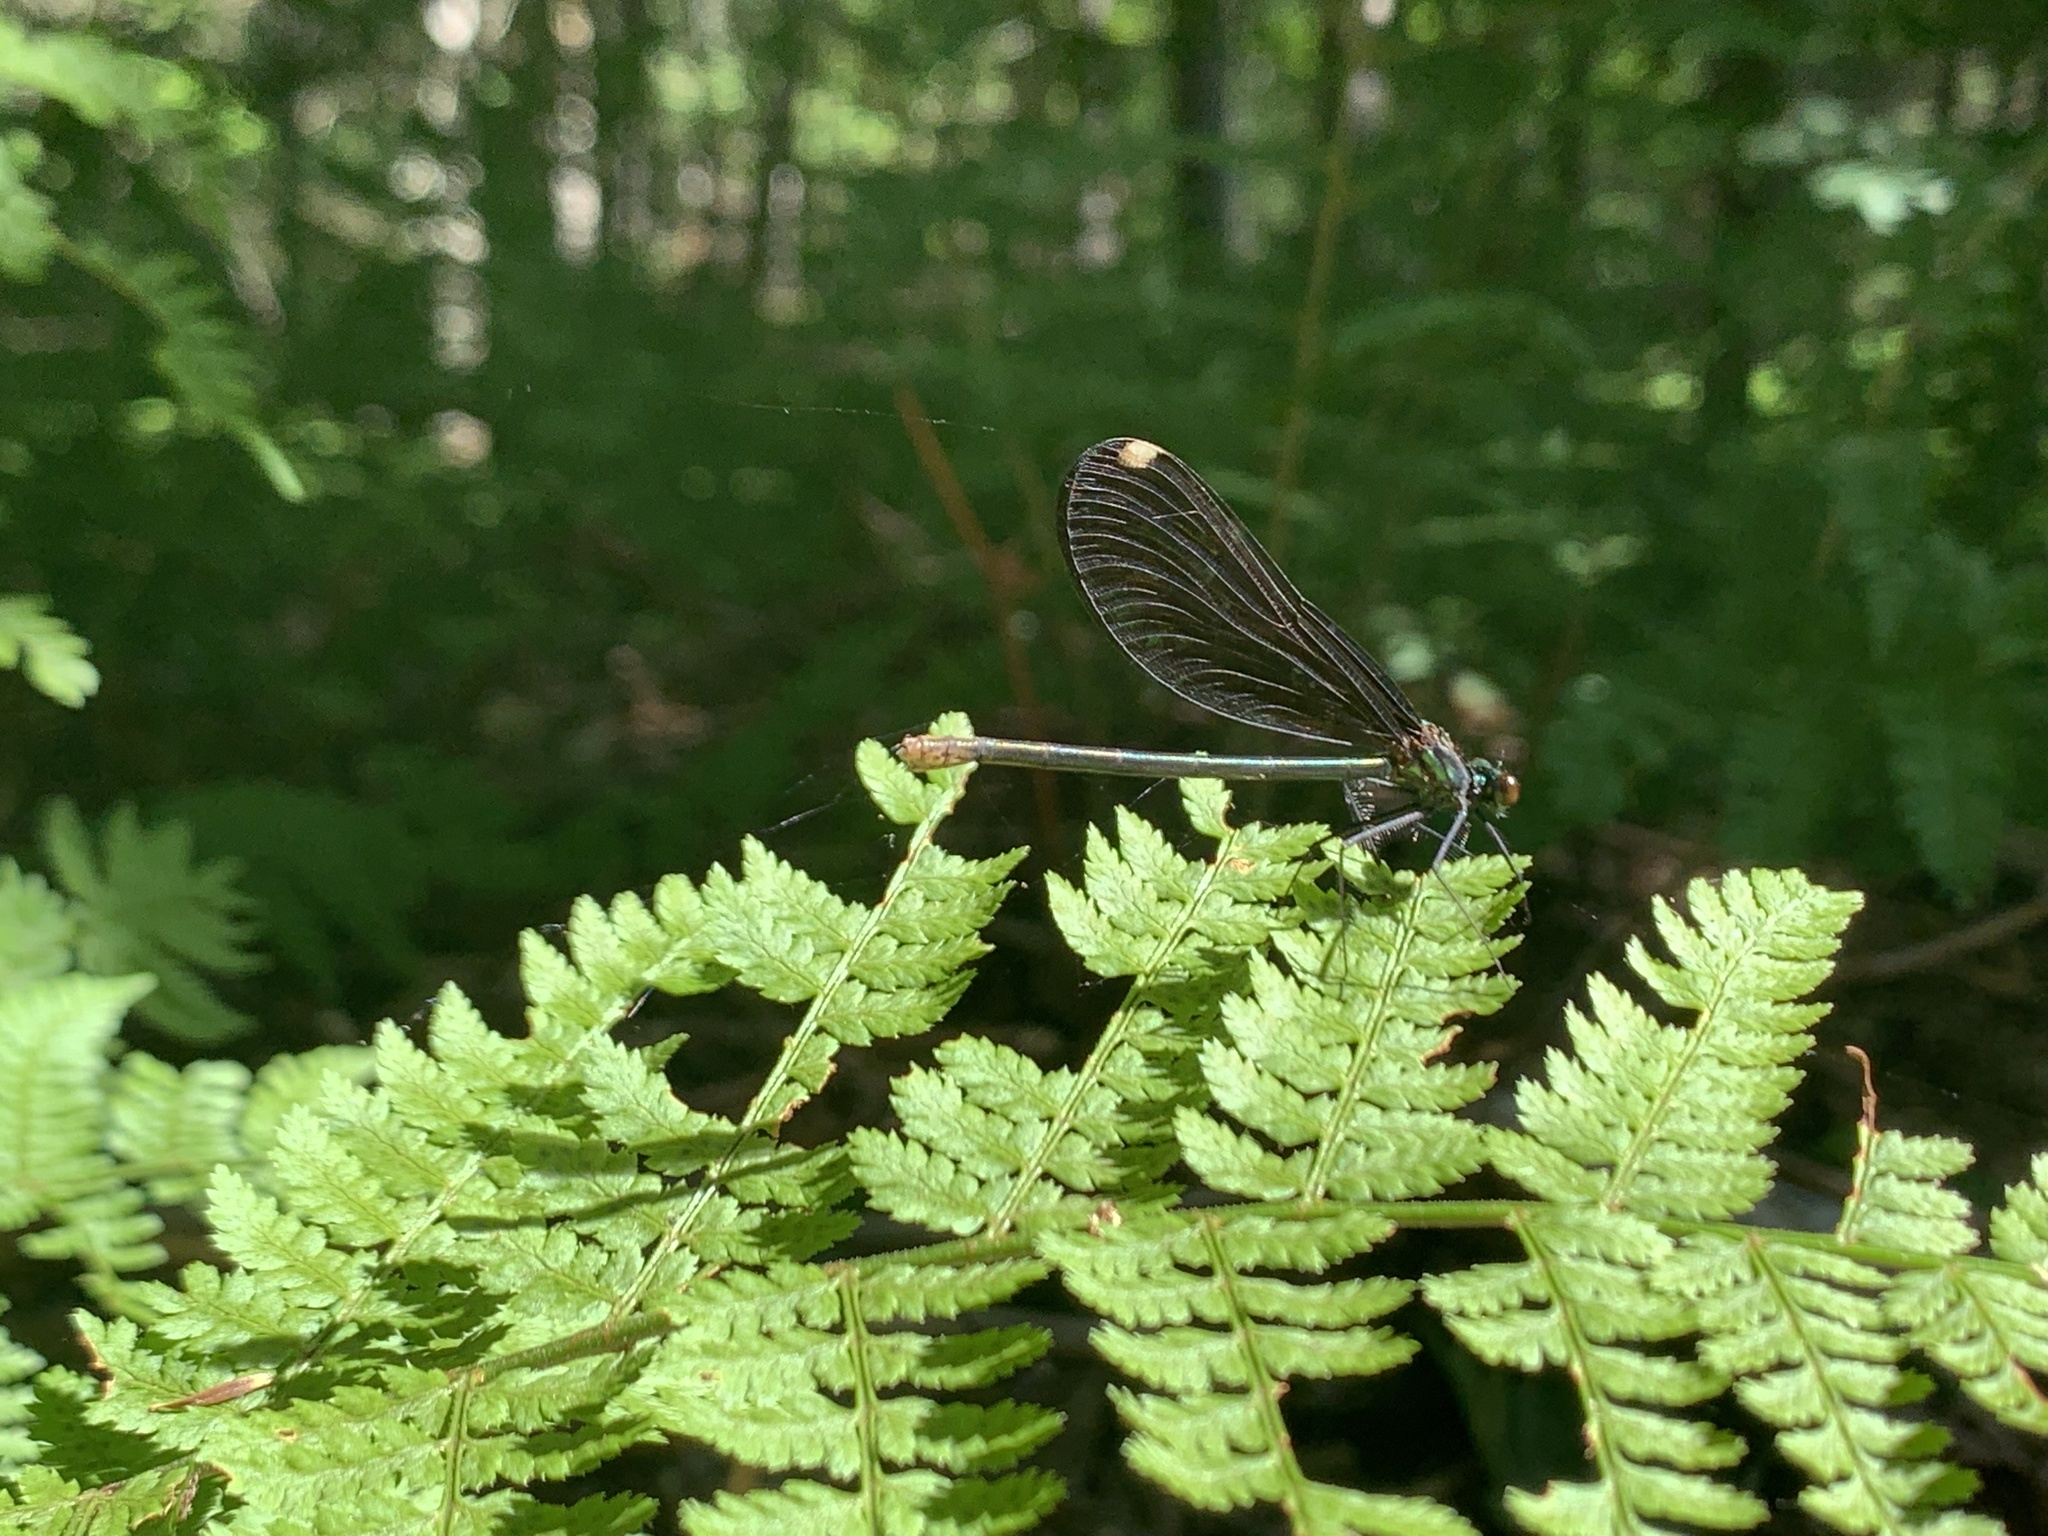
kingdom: Animalia
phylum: Arthropoda
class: Insecta
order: Odonata
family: Calopterygidae
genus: Calopteryx
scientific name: Calopteryx maculata
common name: Ebony jewelwing
